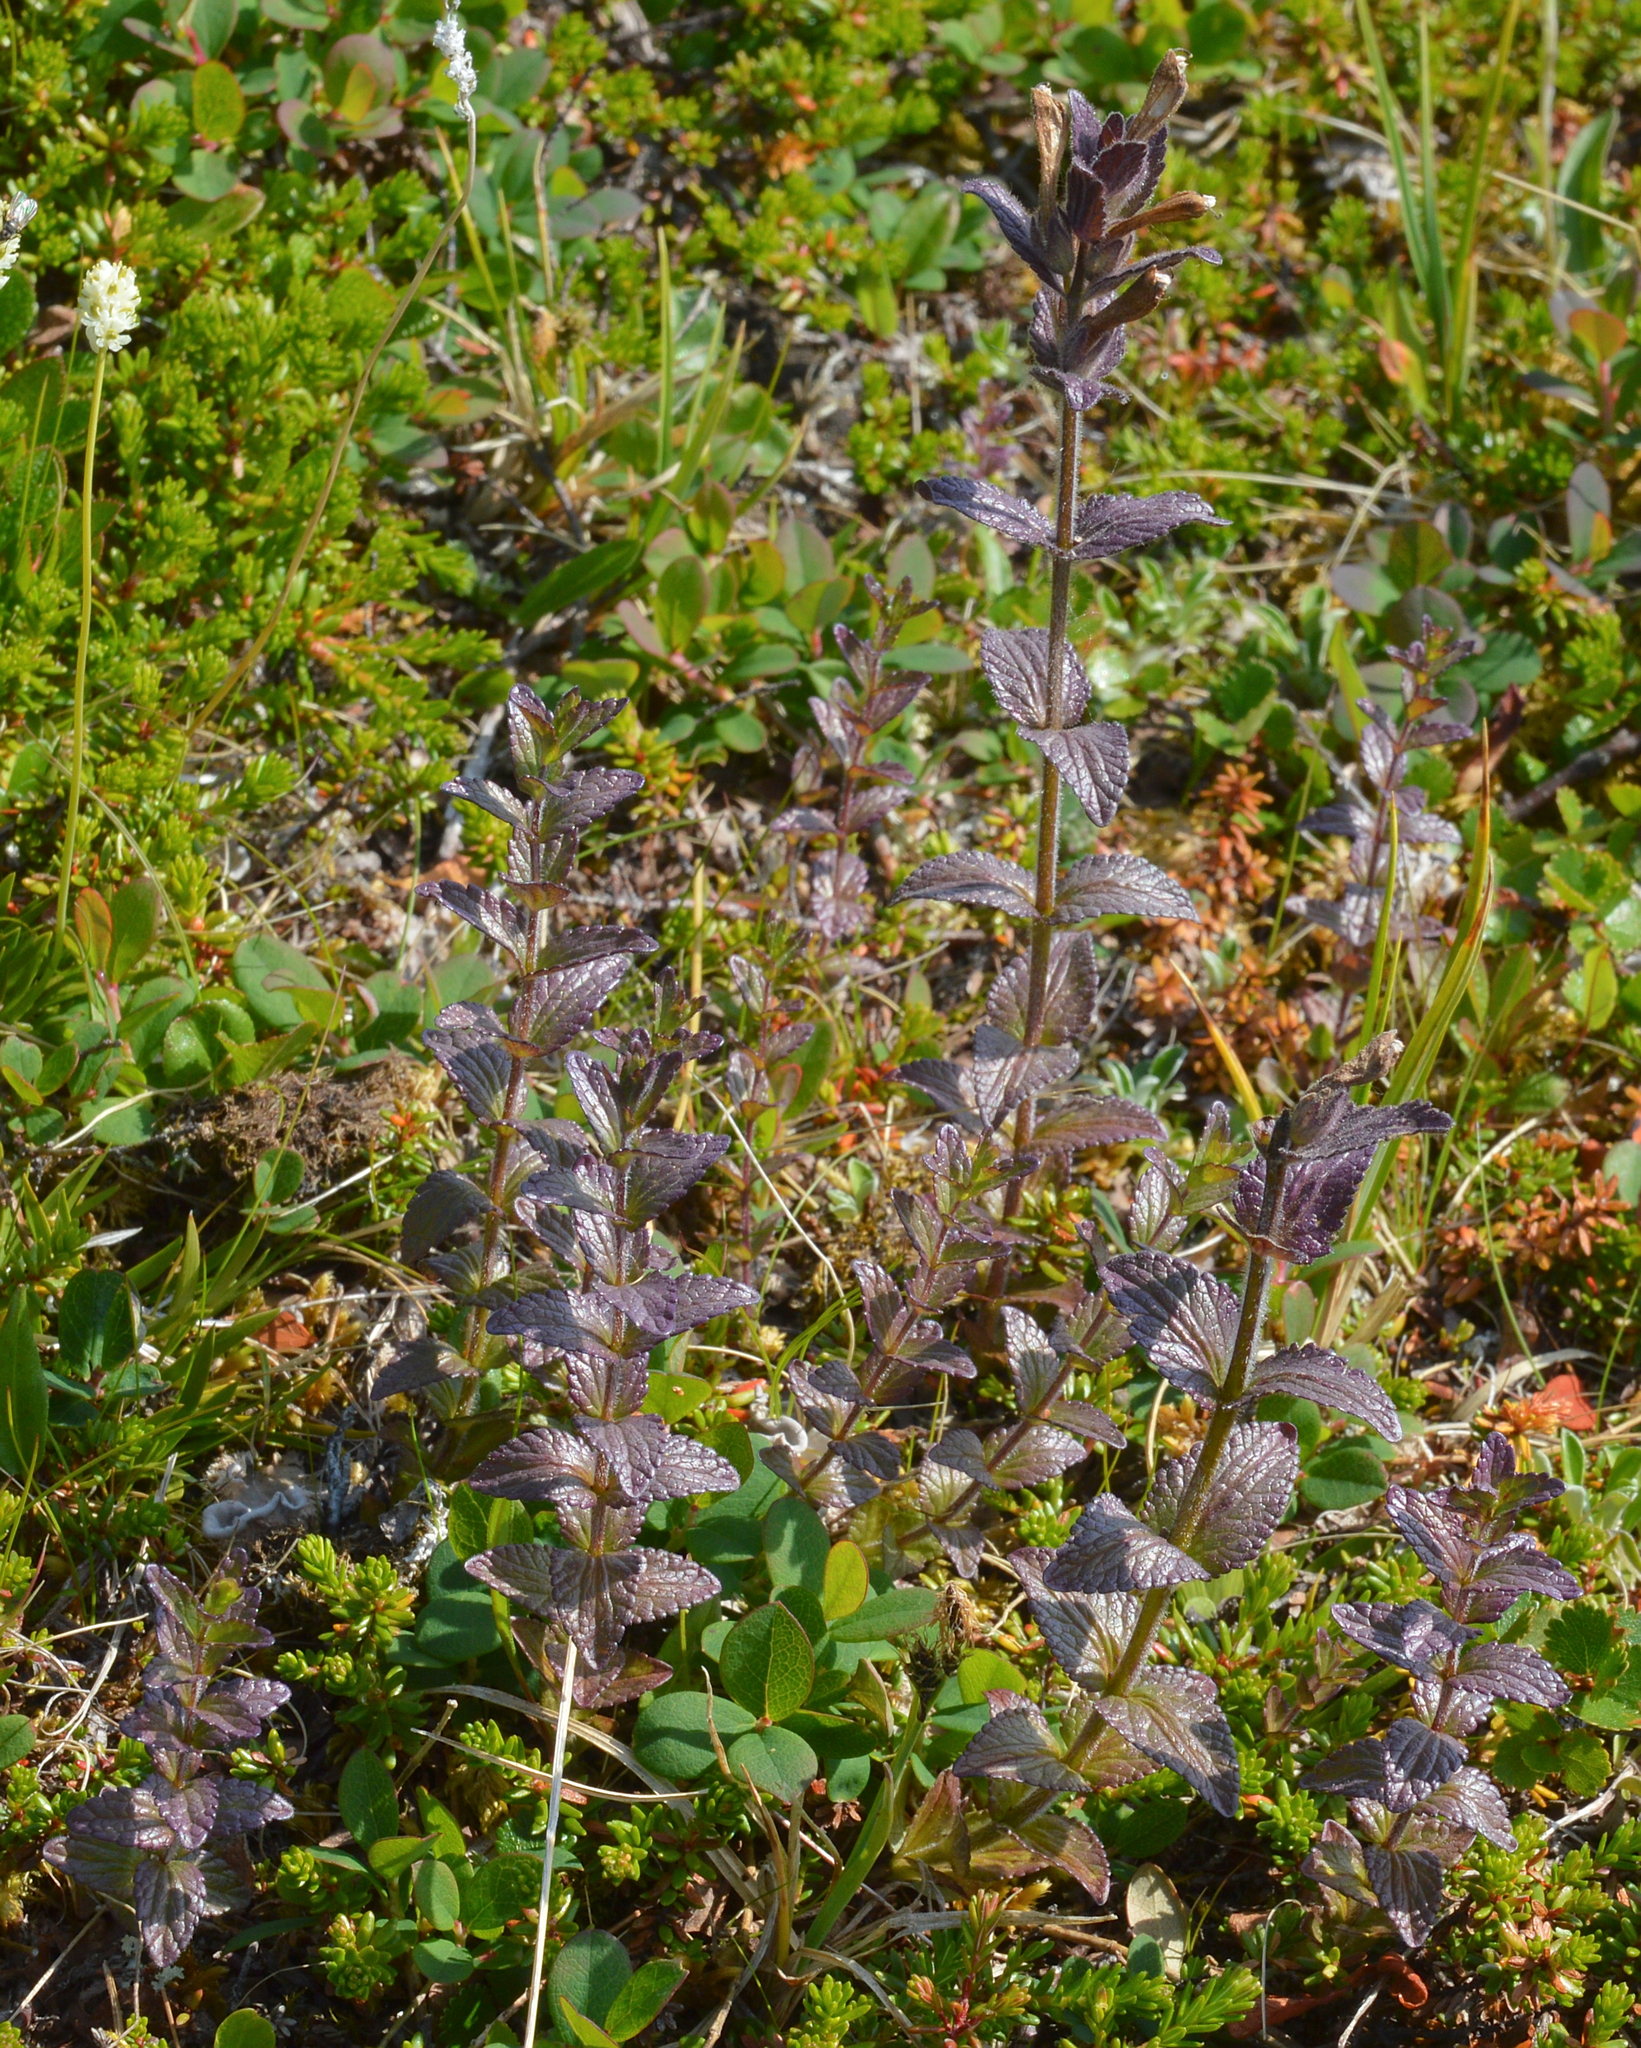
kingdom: Plantae
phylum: Tracheophyta
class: Magnoliopsida
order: Lamiales
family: Orobanchaceae
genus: Bartsia
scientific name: Bartsia alpina
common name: Alpine bartsia
